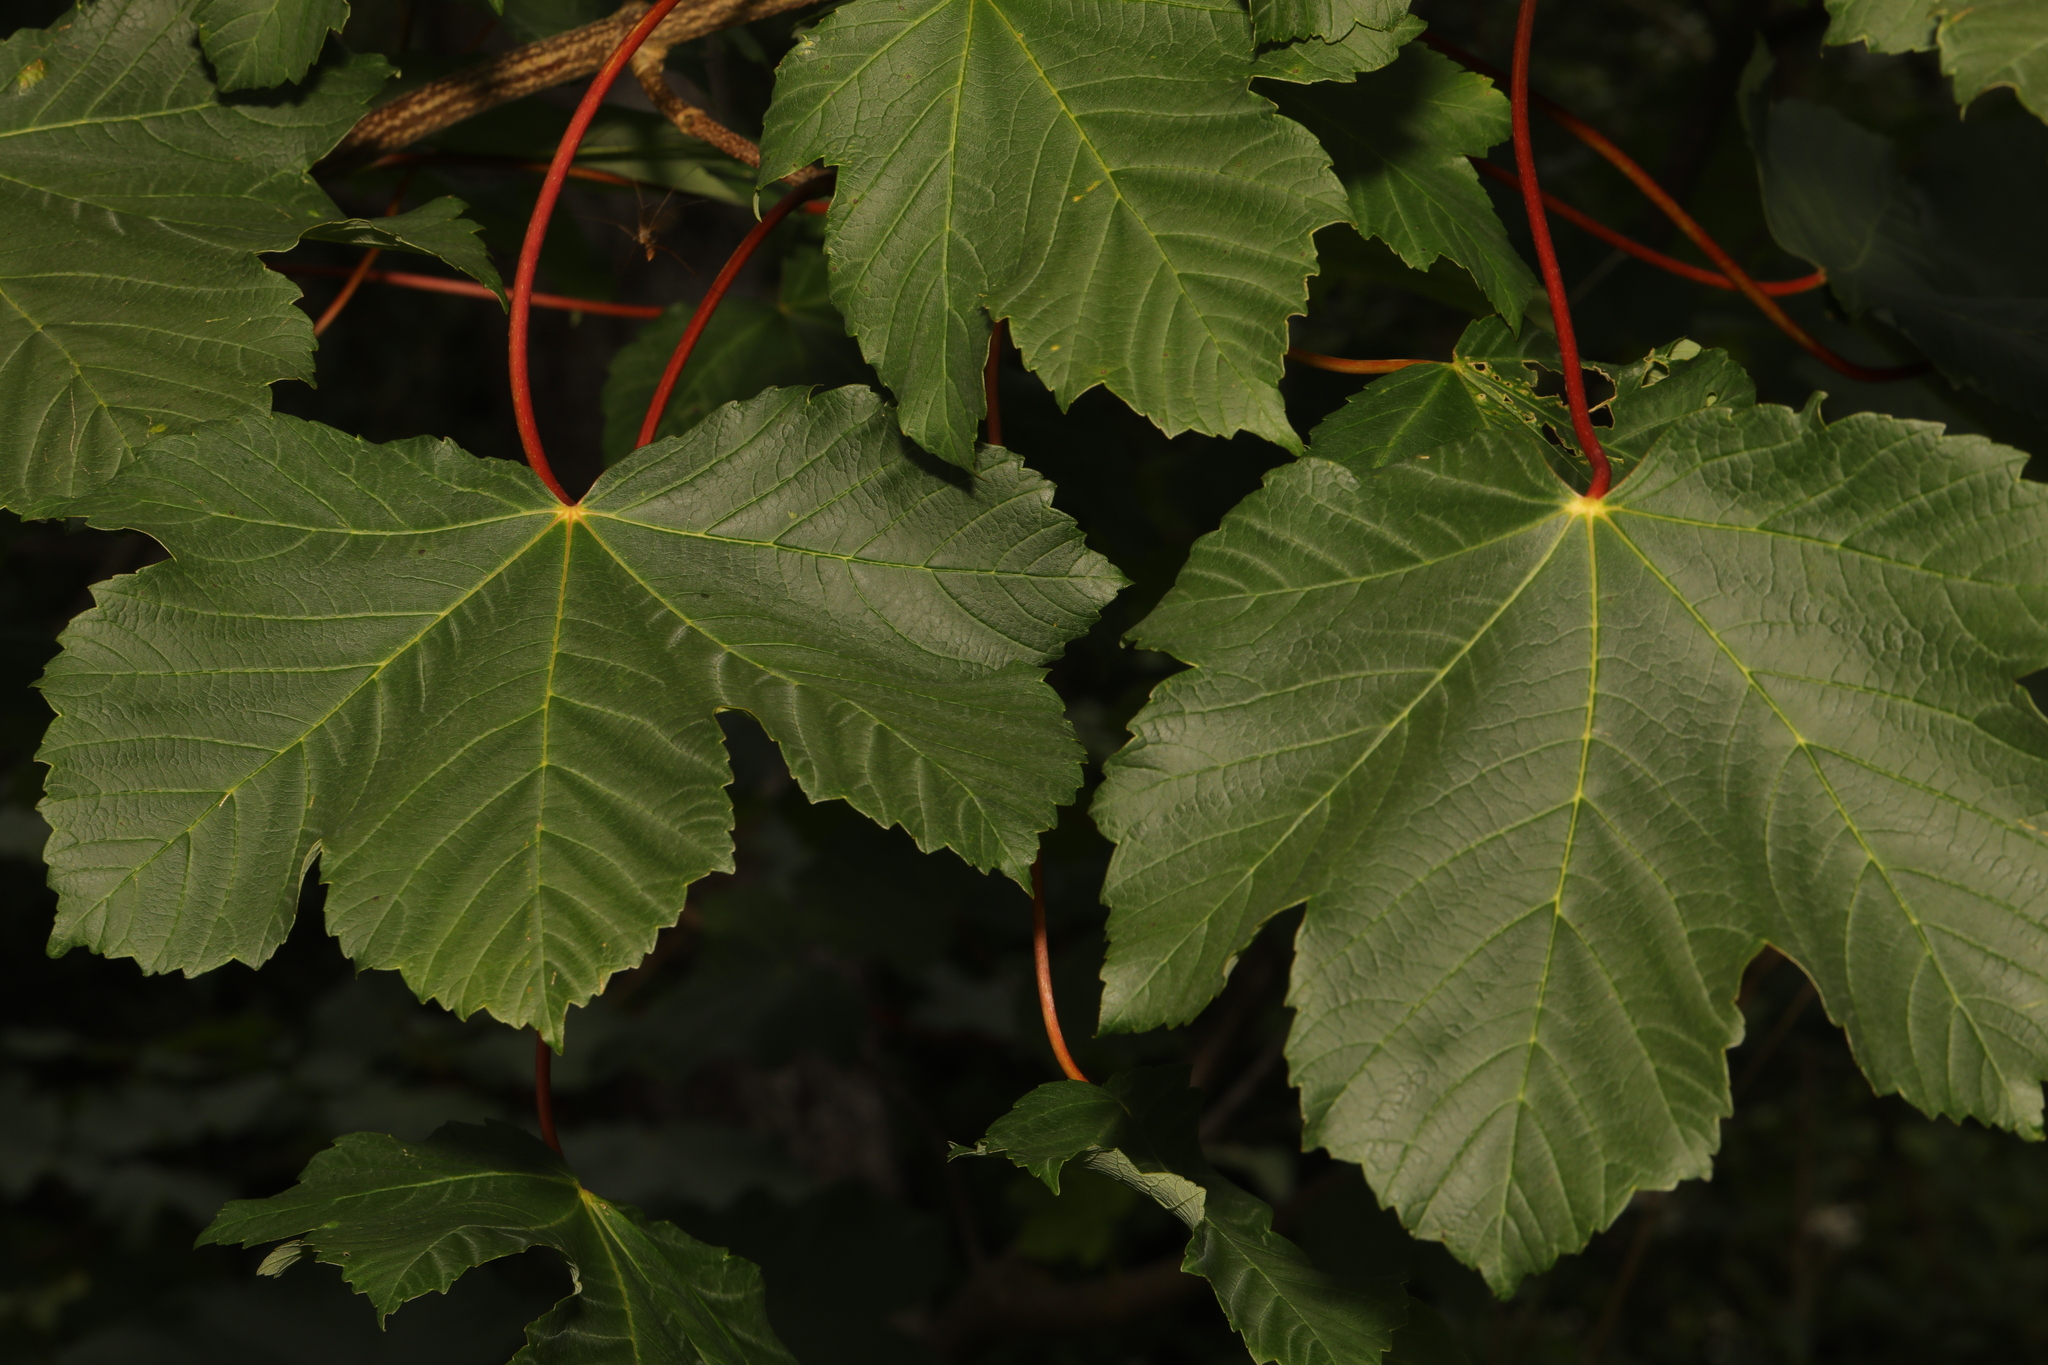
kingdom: Plantae
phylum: Tracheophyta
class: Magnoliopsida
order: Sapindales
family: Sapindaceae
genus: Acer
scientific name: Acer pseudoplatanus
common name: Sycamore
